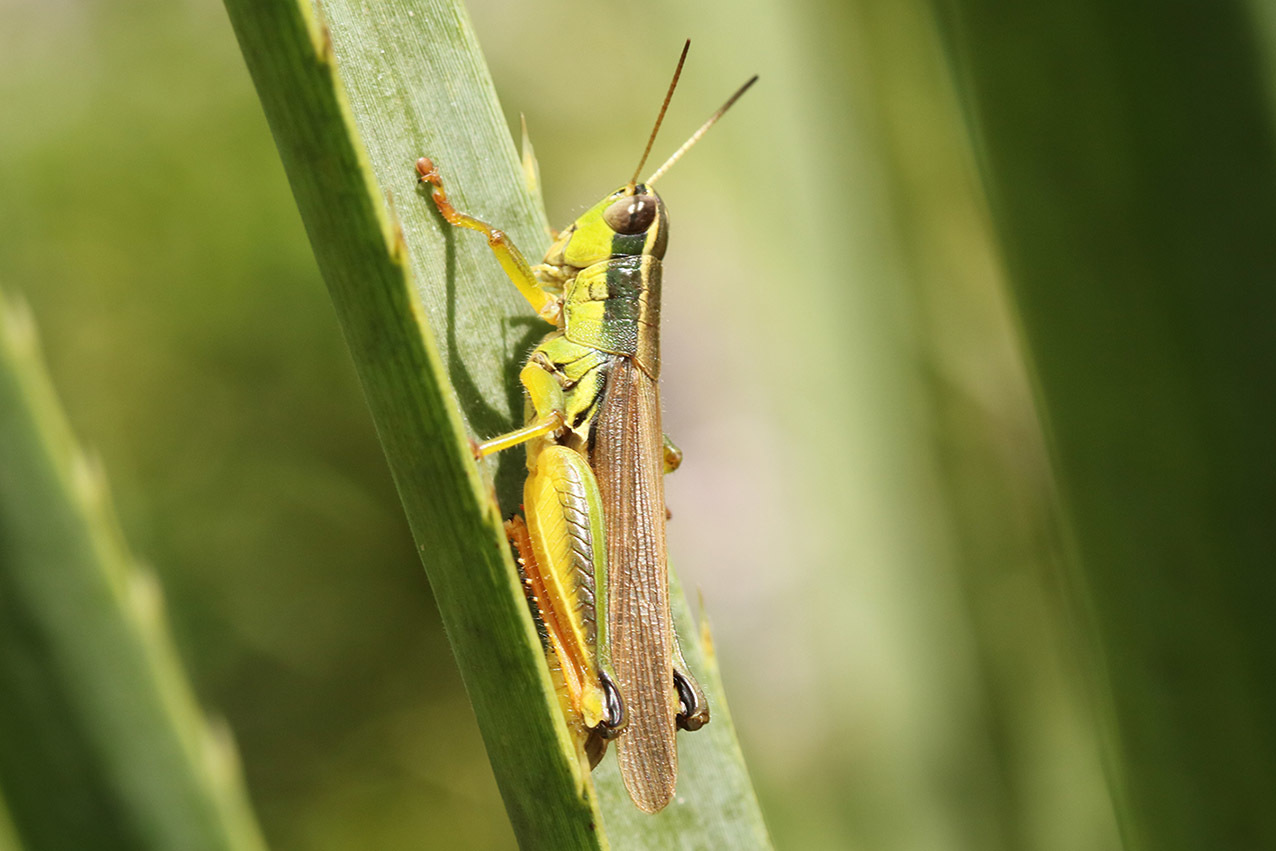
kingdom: Animalia
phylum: Arthropoda
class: Insecta
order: Orthoptera
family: Acrididae
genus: Scotussa
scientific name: Scotussa cliens
